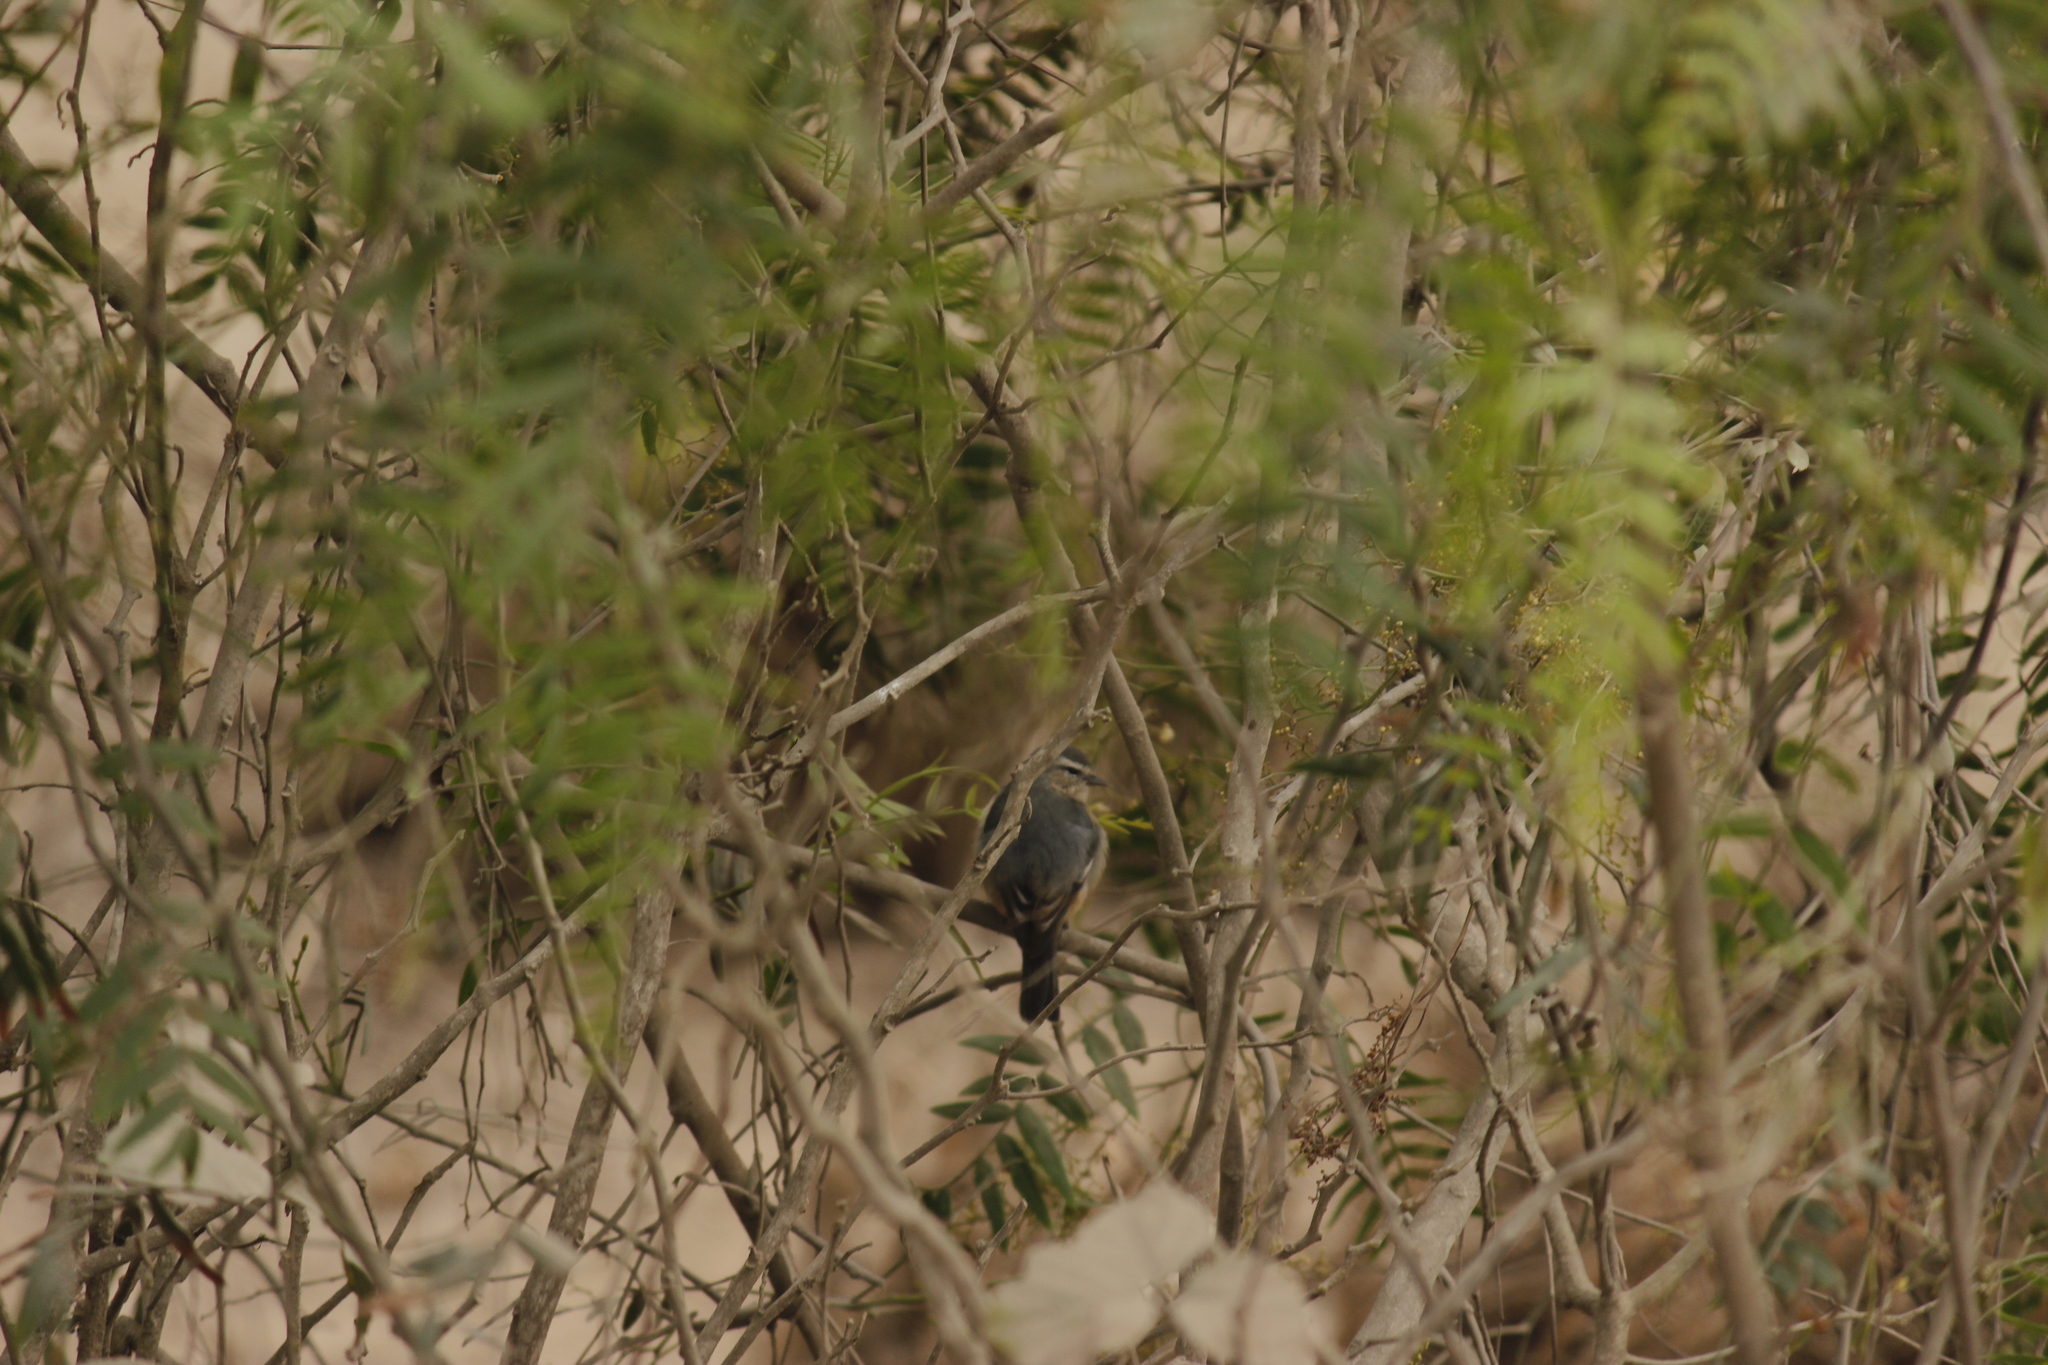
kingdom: Animalia
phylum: Chordata
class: Aves
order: Passeriformes
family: Thraupidae
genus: Conirostrum
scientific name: Conirostrum cinereum
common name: Cinereous conebill
